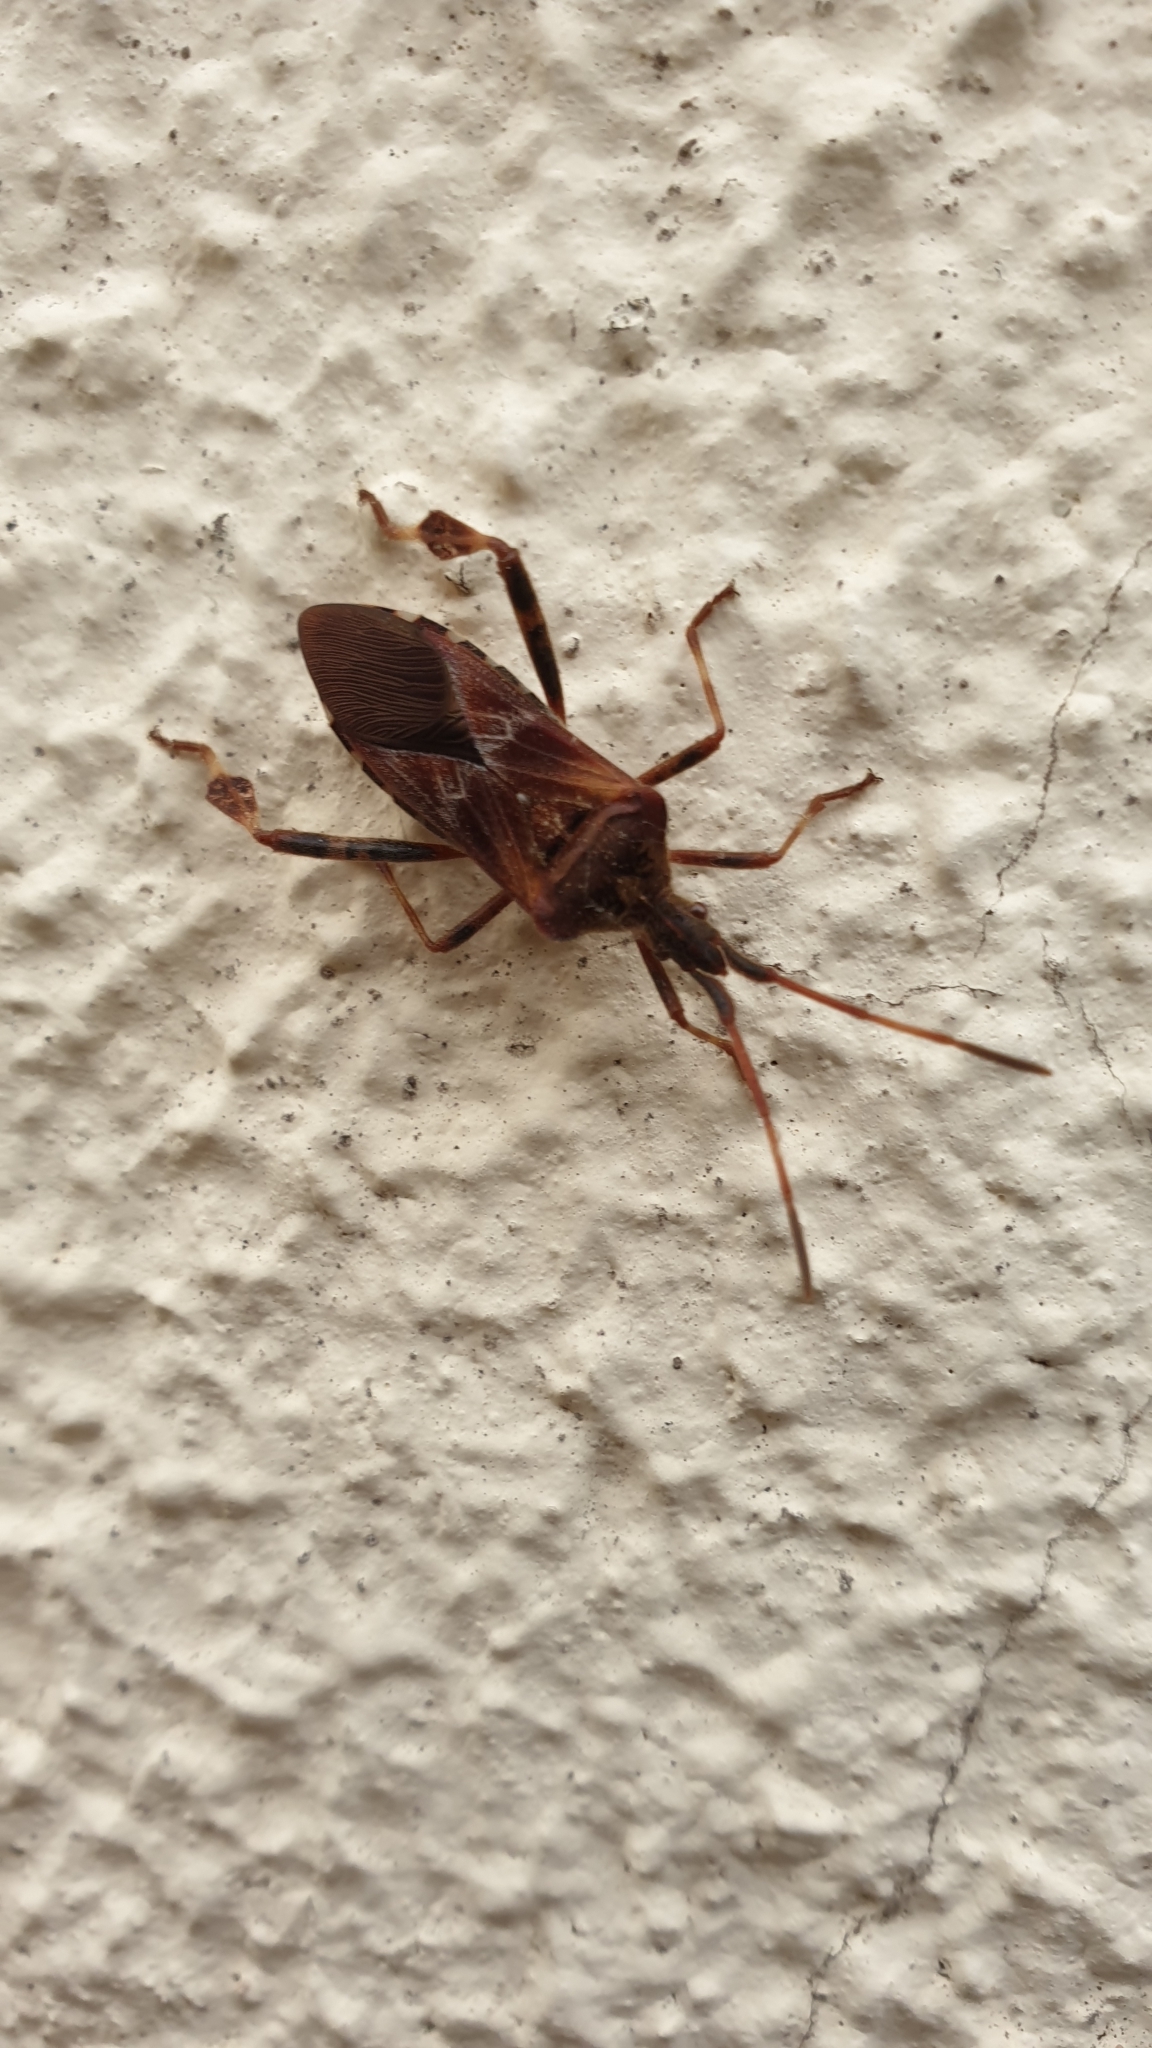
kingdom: Animalia
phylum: Arthropoda
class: Insecta
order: Hemiptera
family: Coreidae
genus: Leptoglossus
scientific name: Leptoglossus occidentalis
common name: Western conifer-seed bug
